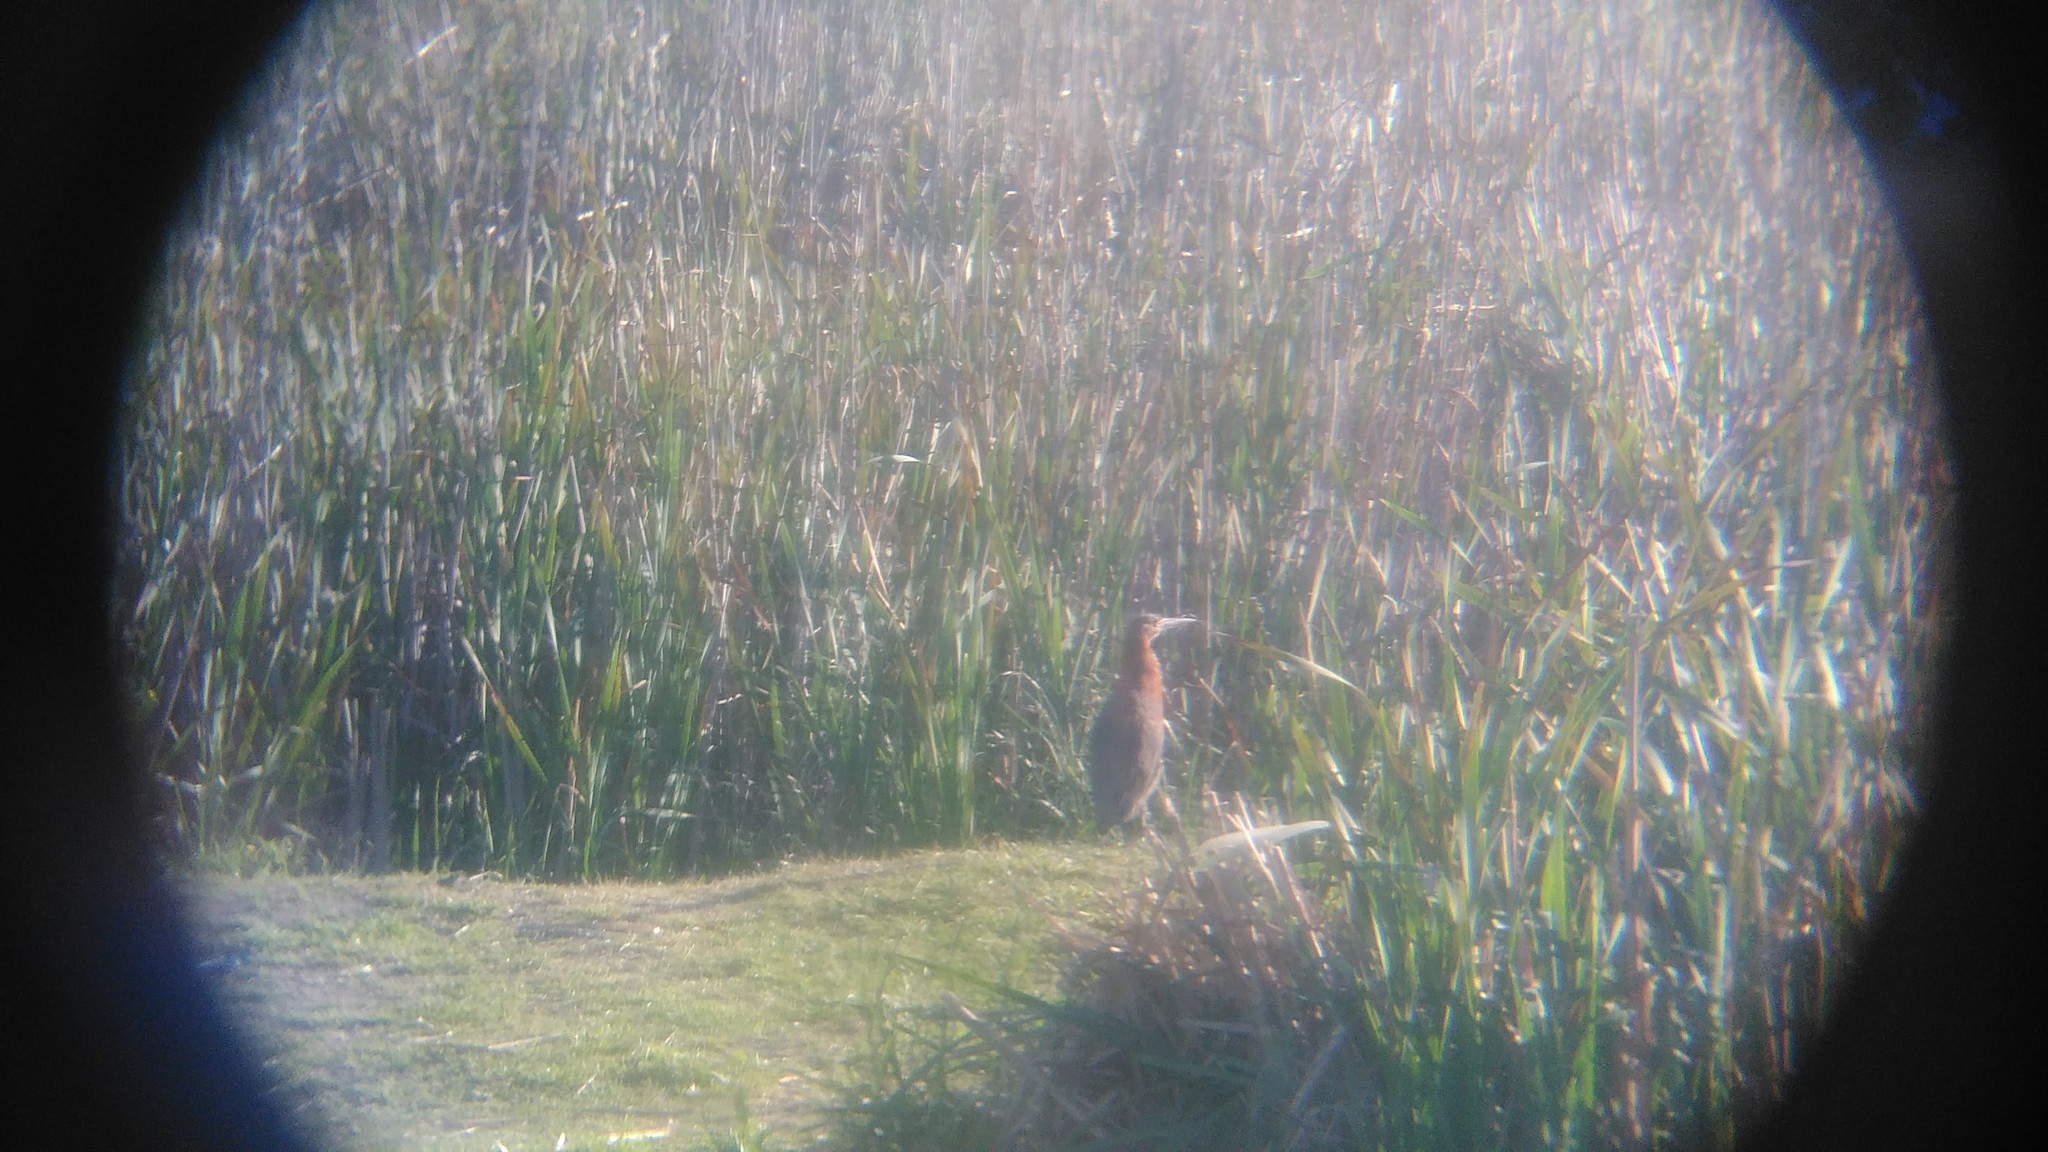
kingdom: Animalia
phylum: Chordata
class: Aves
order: Pelecaniformes
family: Ardeidae
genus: Tigrisoma
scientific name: Tigrisoma lineatum
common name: Rufescent tiger-heron
